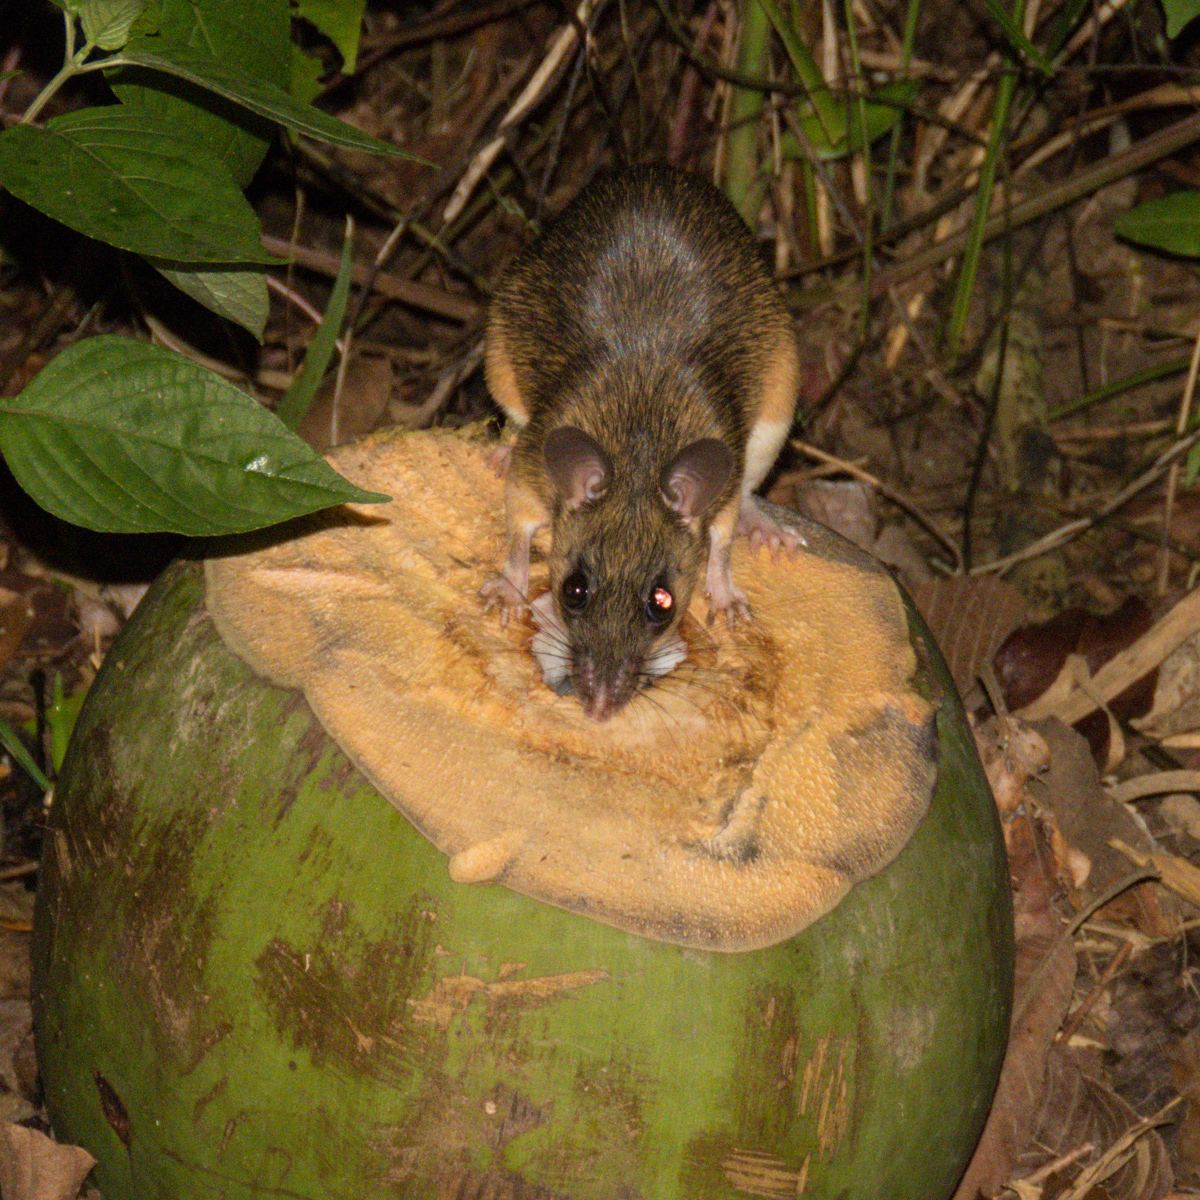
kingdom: Animalia
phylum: Chordata
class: Mammalia
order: Rodentia
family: Muridae
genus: Leopoldamys
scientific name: Leopoldamys sabanus
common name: Indomalayan leopoldamys
